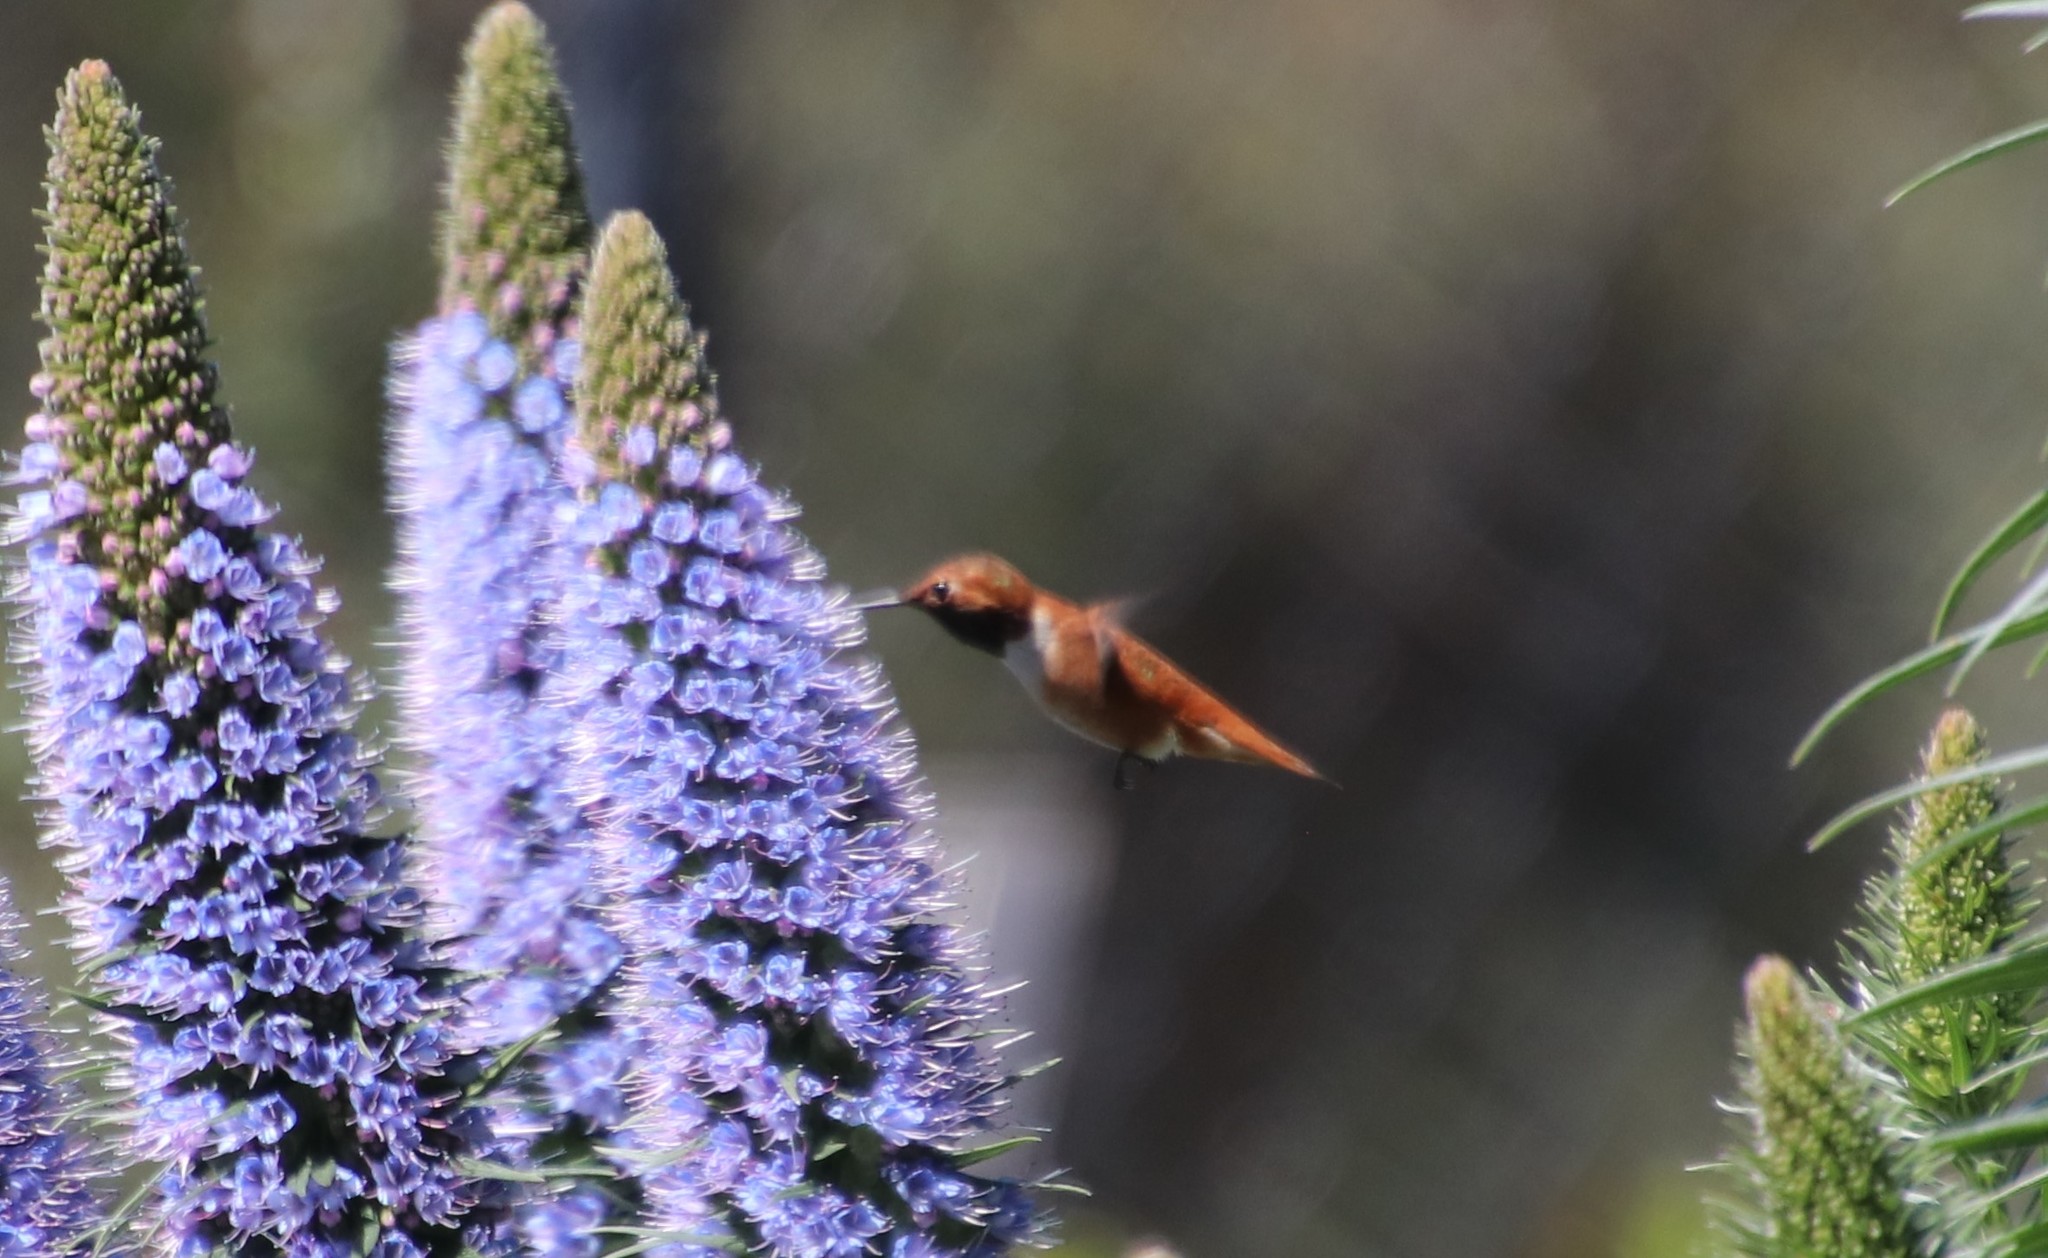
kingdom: Animalia
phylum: Chordata
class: Aves
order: Apodiformes
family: Trochilidae
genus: Selasphorus
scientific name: Selasphorus rufus
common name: Rufous hummingbird
